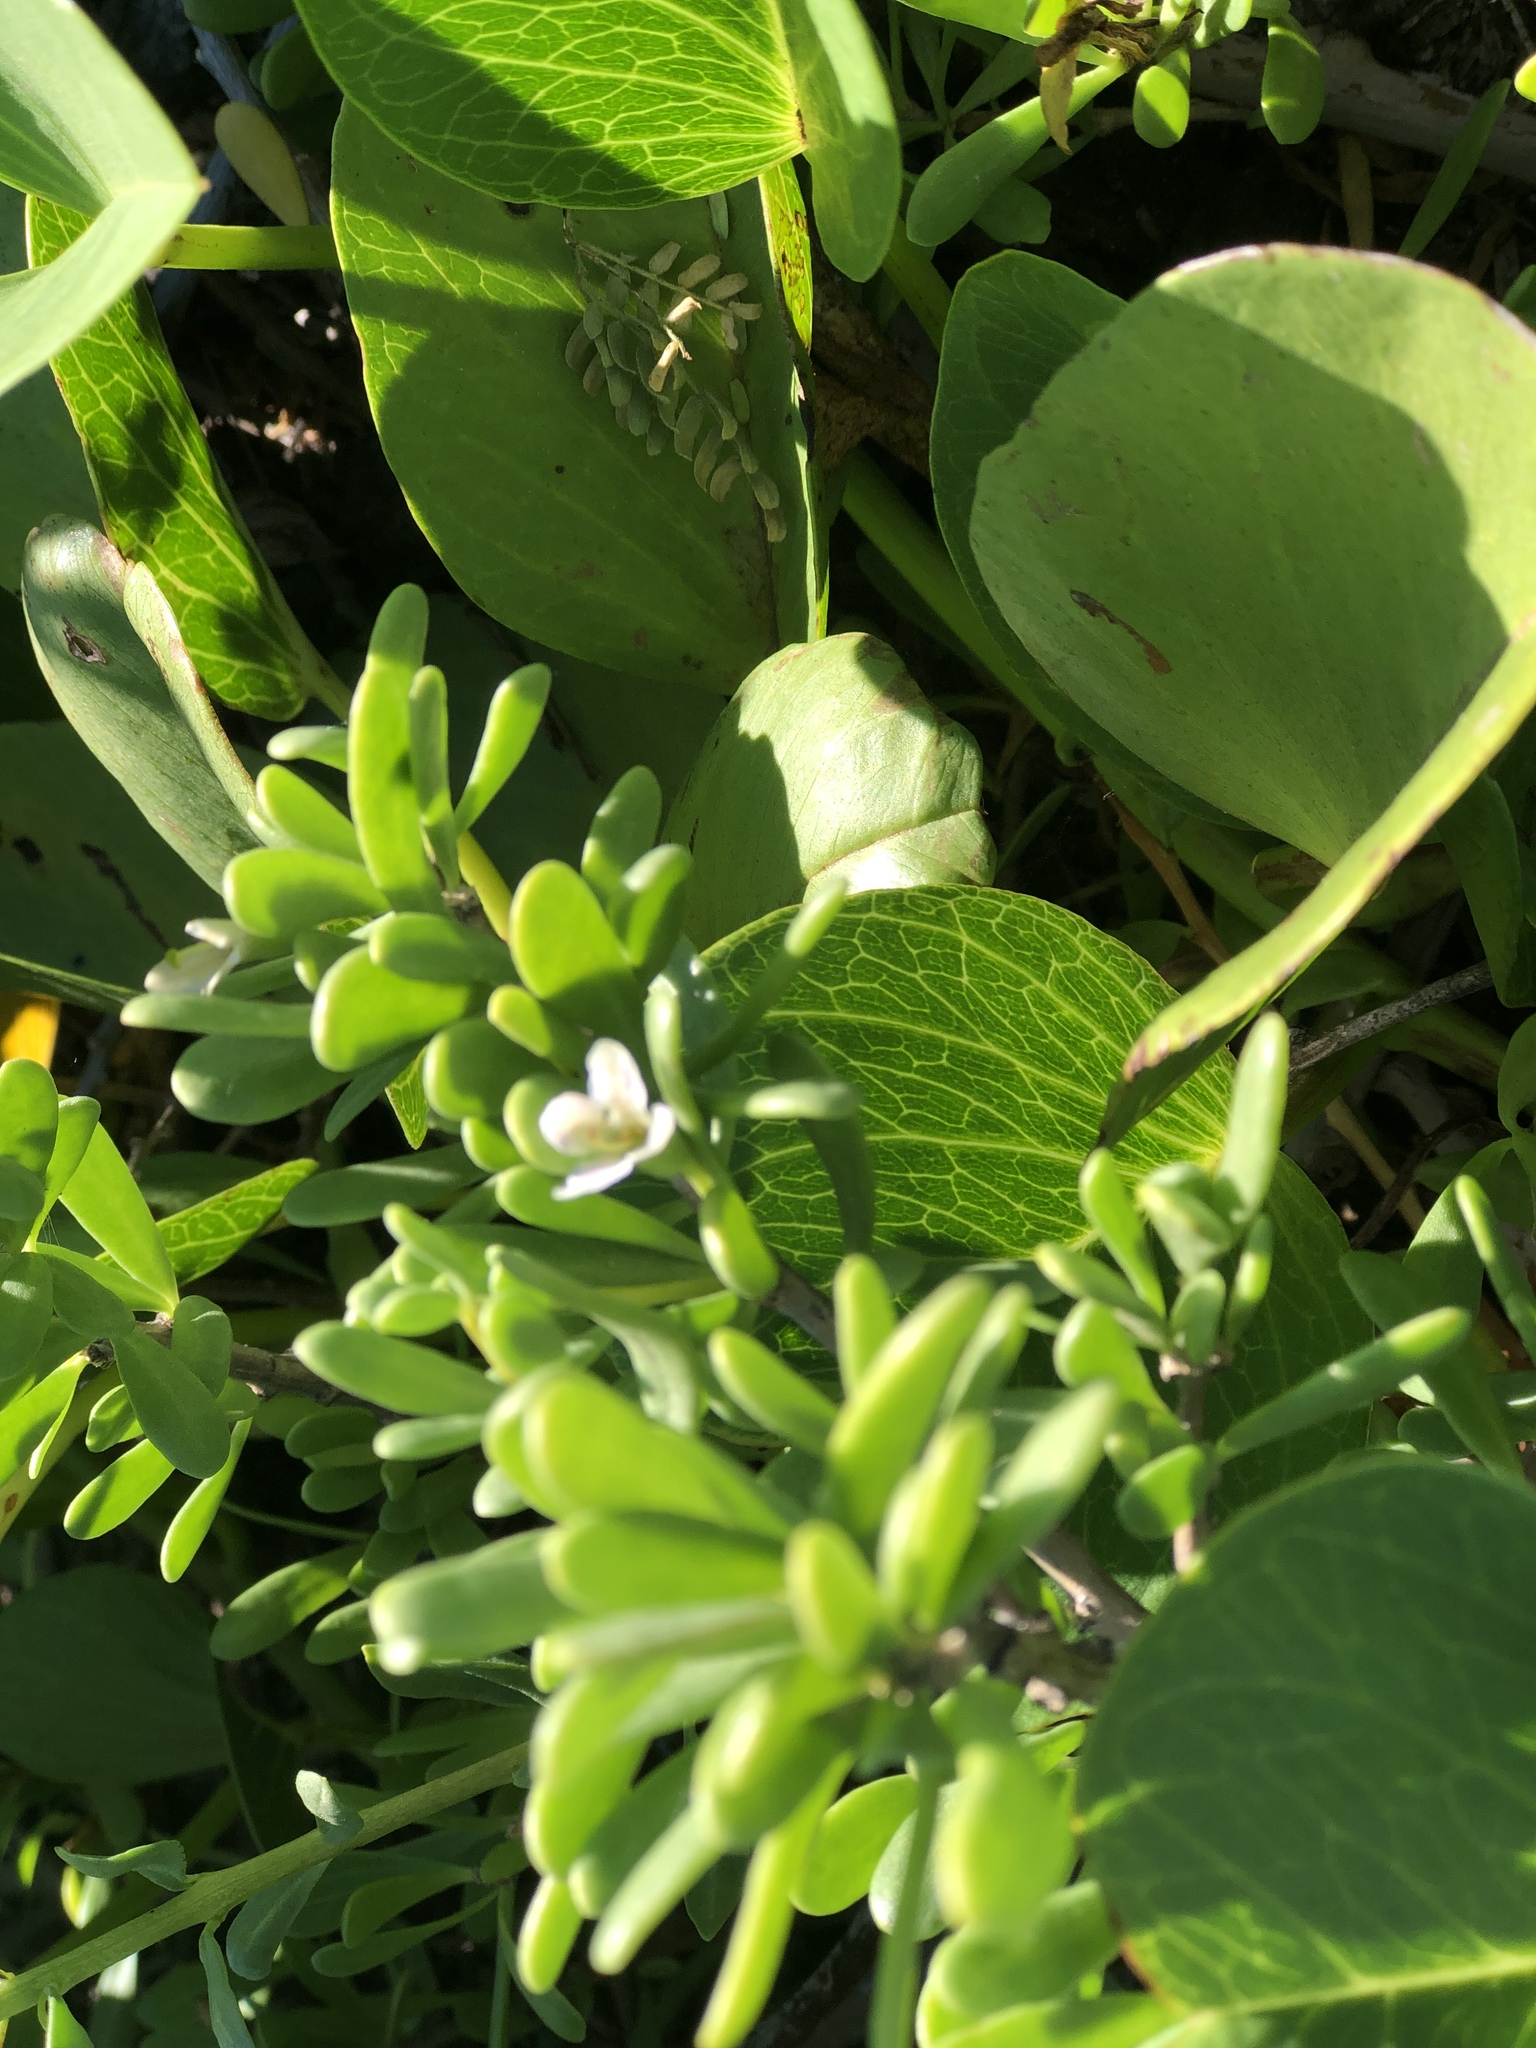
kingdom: Plantae
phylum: Tracheophyta
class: Magnoliopsida
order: Solanales
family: Solanaceae
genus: Lycium
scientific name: Lycium sandwicense
